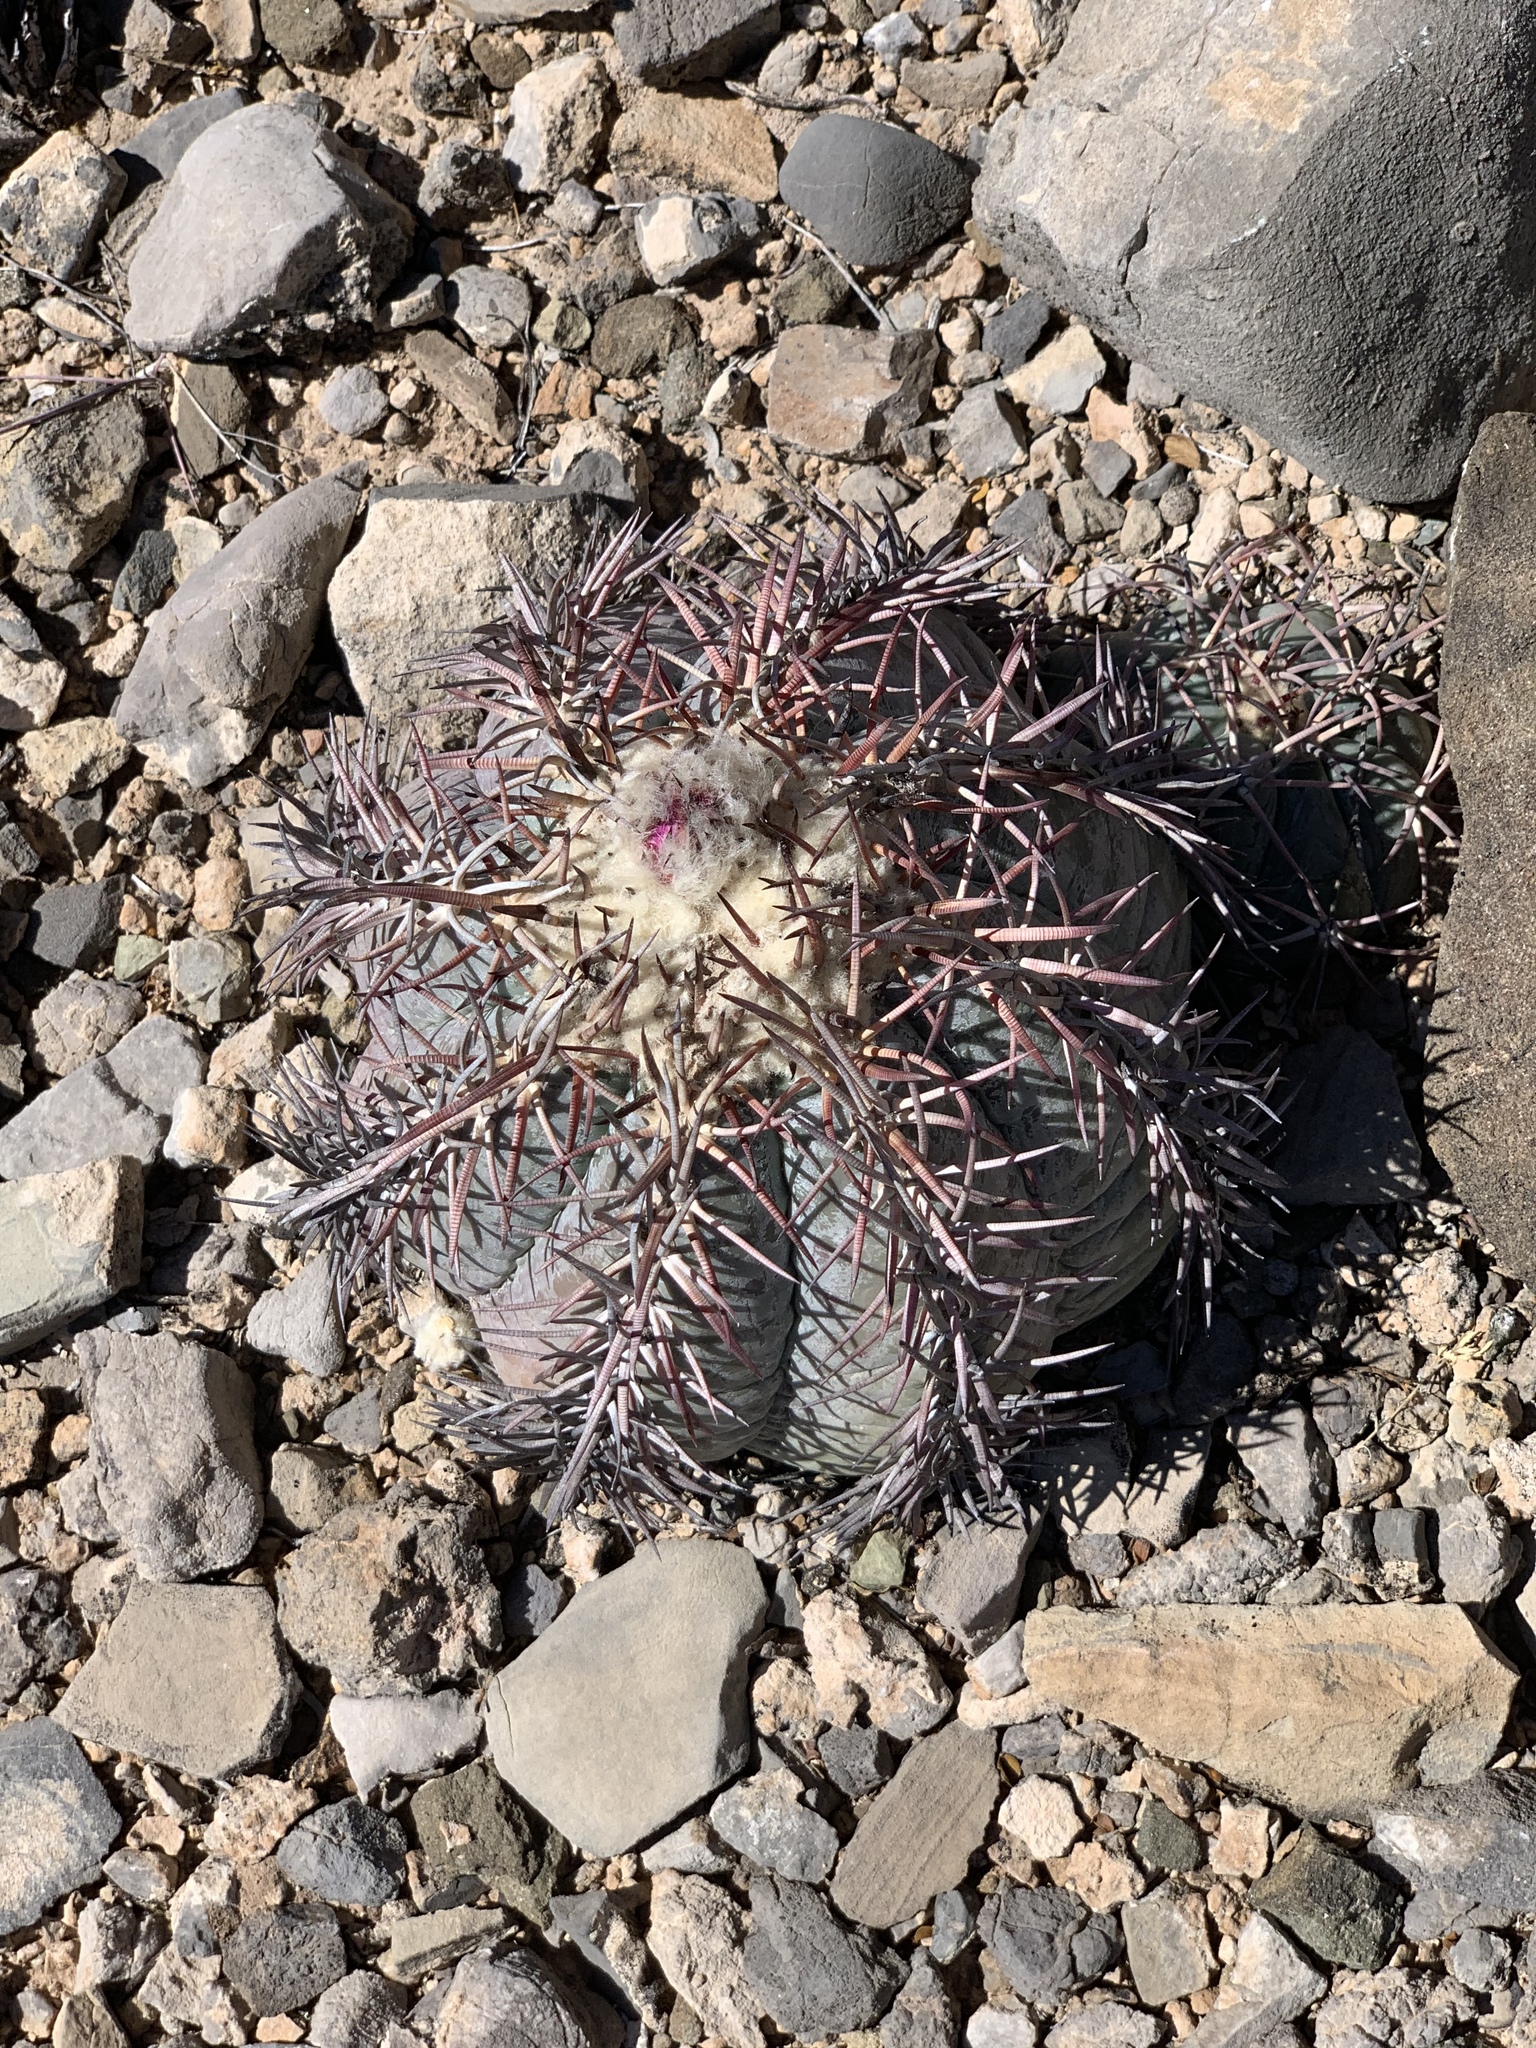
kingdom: Plantae
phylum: Tracheophyta
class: Magnoliopsida
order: Caryophyllales
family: Cactaceae
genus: Echinocactus
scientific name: Echinocactus horizonthalonius
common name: Devilshead
